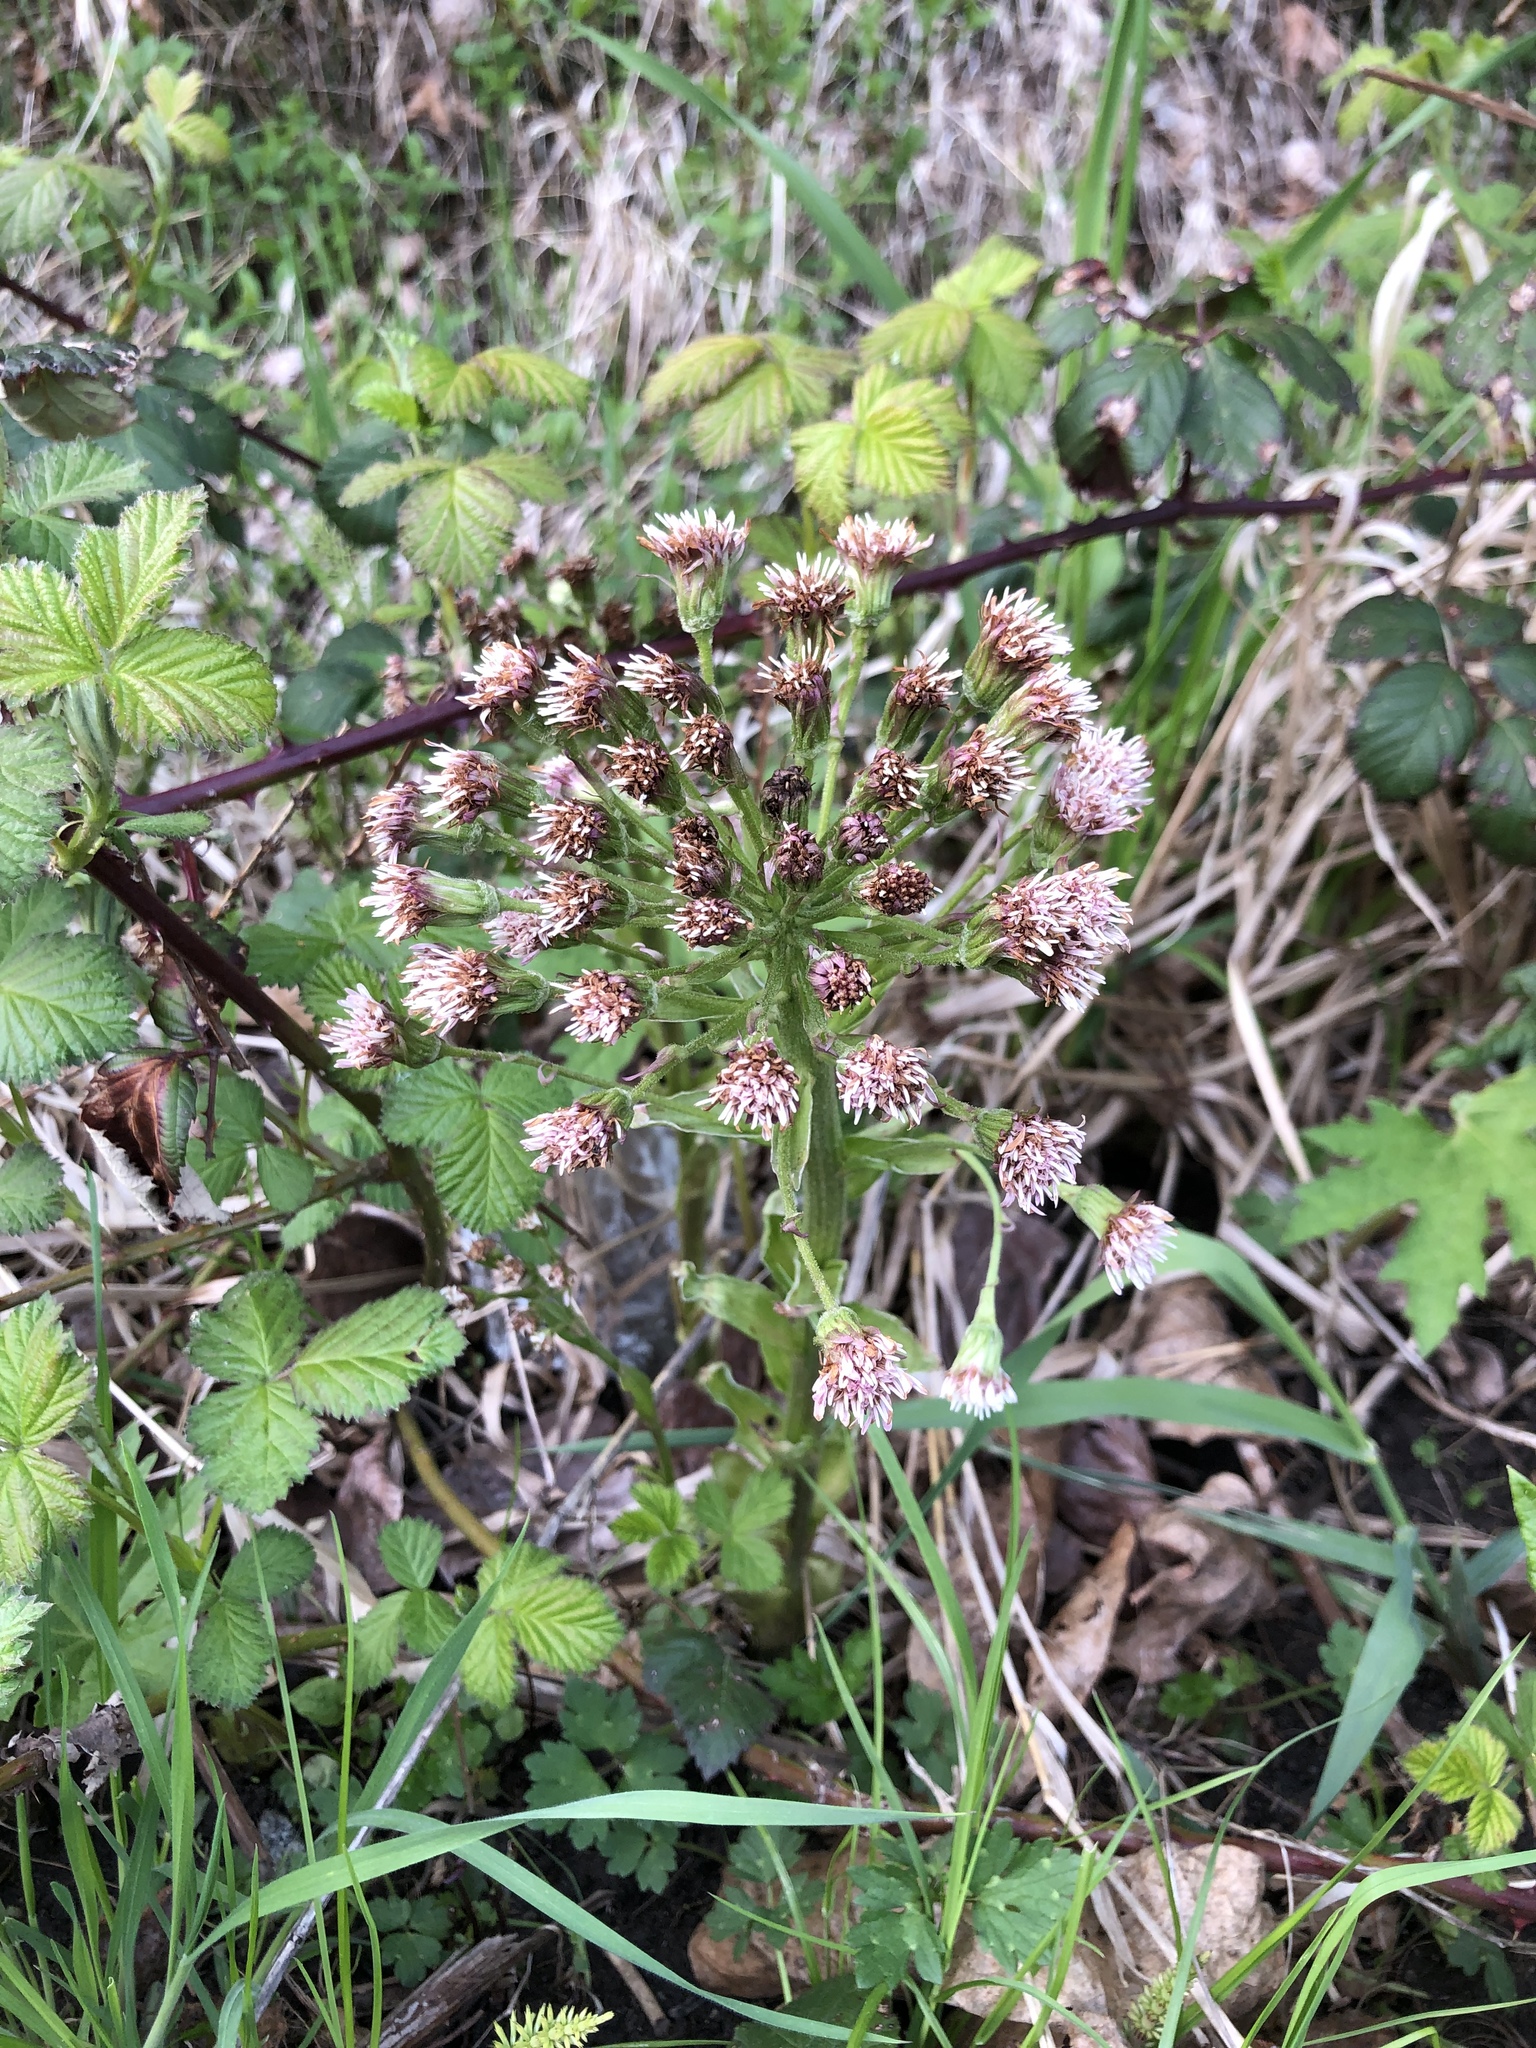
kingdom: Plantae
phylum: Tracheophyta
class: Magnoliopsida
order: Asterales
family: Asteraceae
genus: Petasites
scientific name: Petasites frigidus
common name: Arctic butterbur
